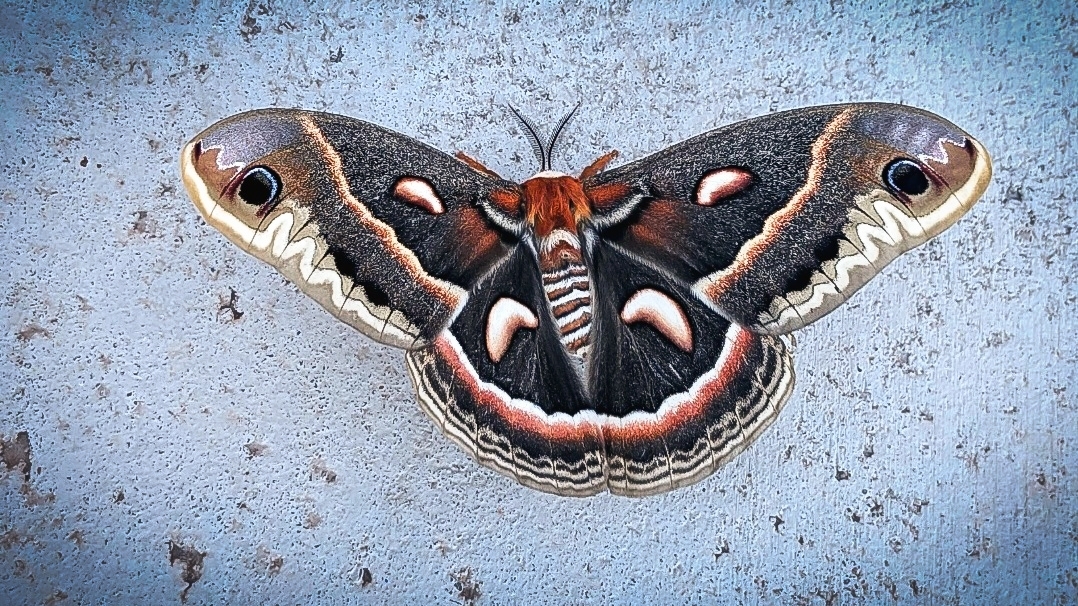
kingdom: Animalia
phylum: Arthropoda
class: Insecta
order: Lepidoptera
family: Saturniidae
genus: Hyalophora
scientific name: Hyalophora cecropia
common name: Cecropia silkmoth
